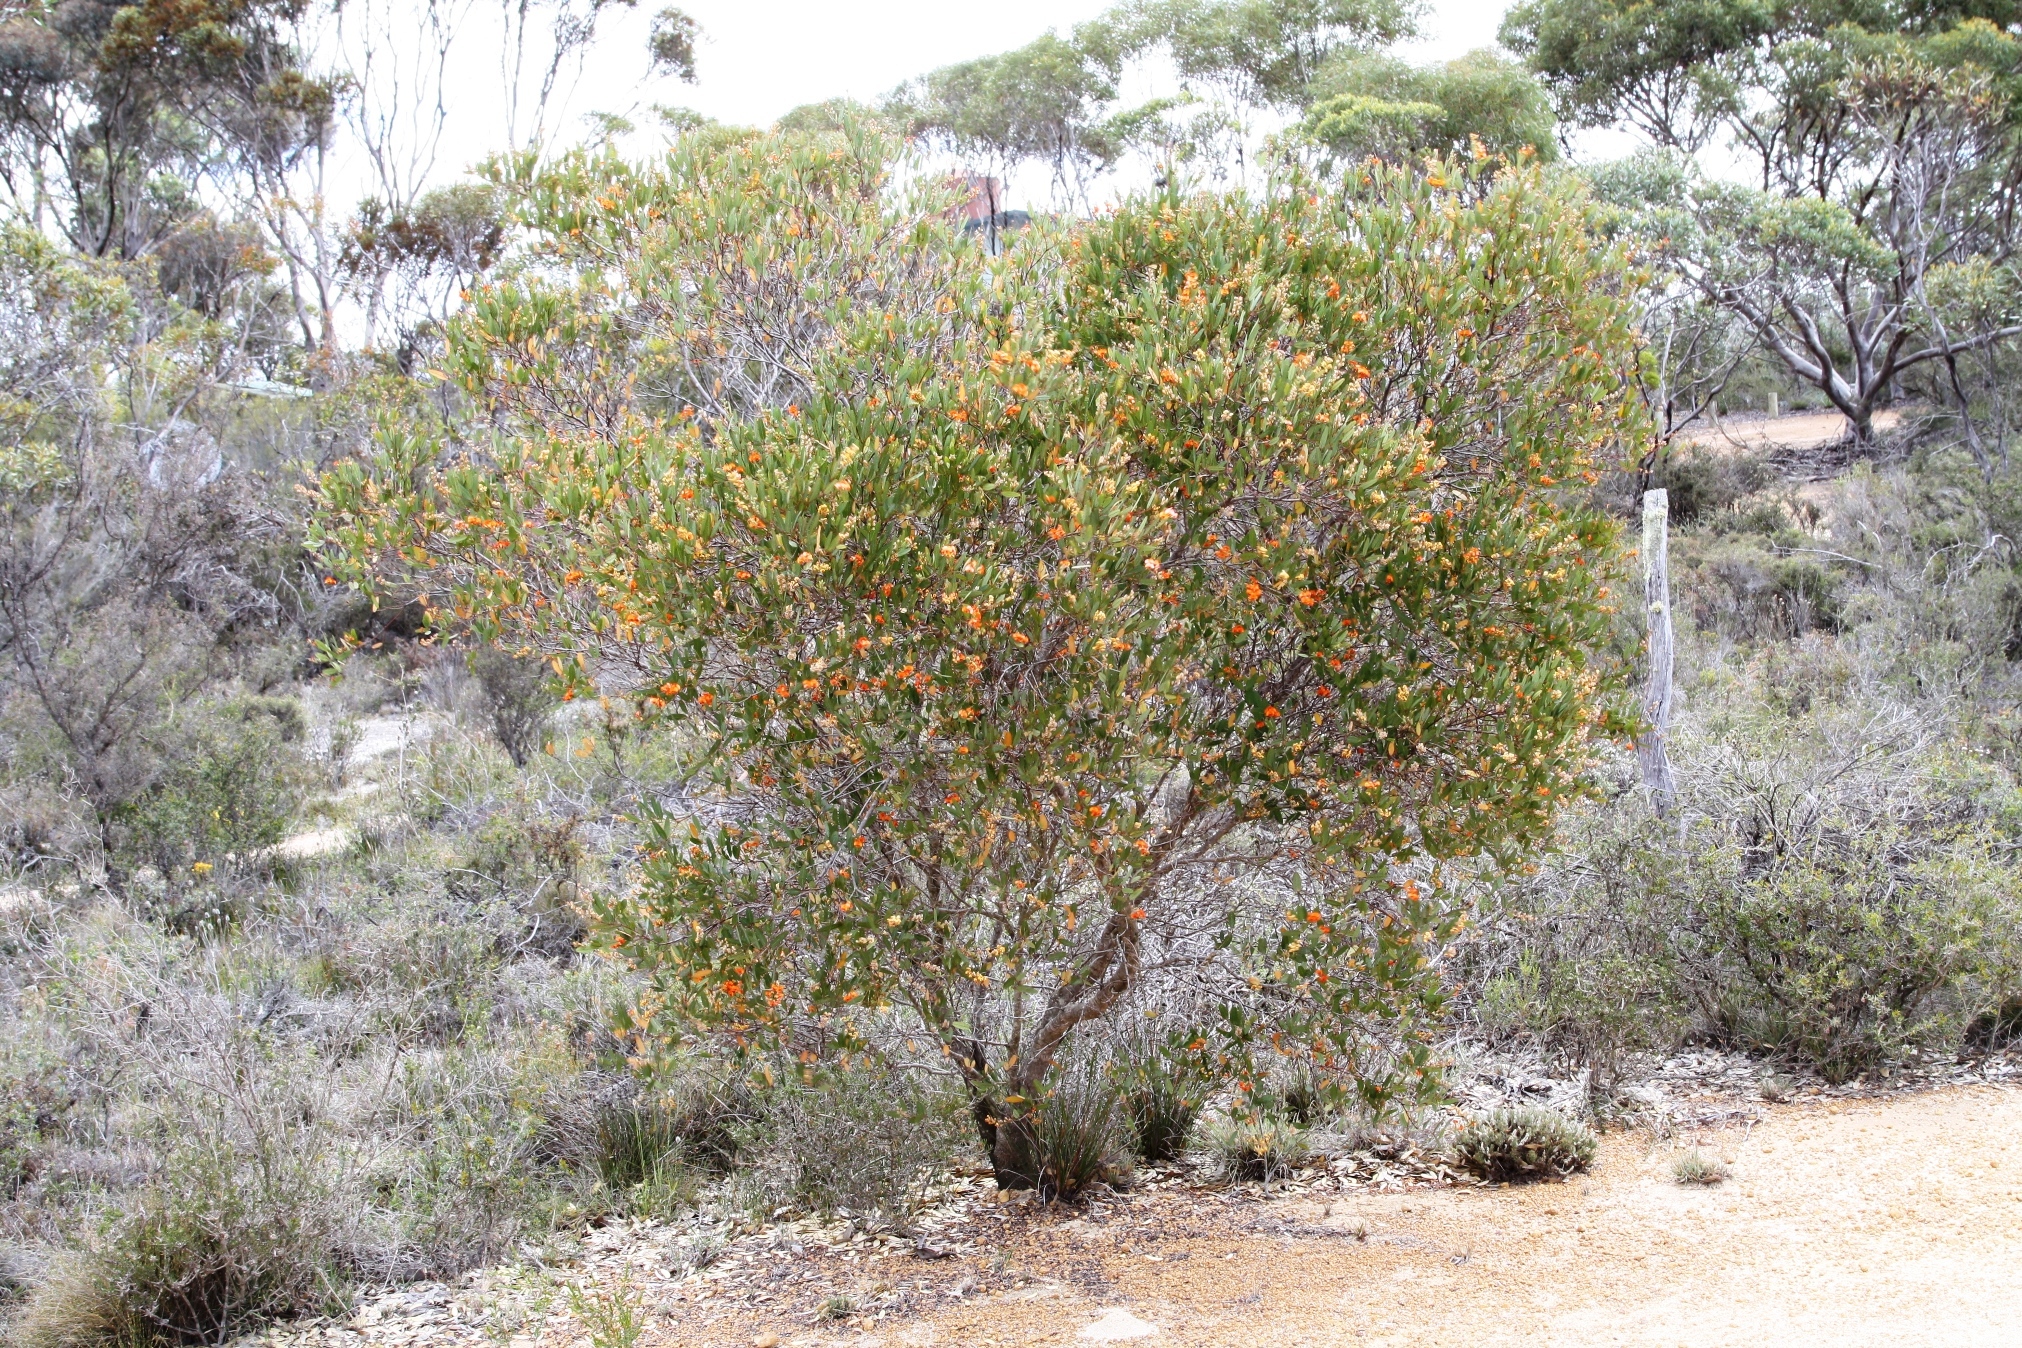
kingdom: Plantae
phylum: Tracheophyta
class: Magnoliopsida
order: Fabales
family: Fabaceae
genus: Gastrolobium
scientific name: Gastrolobium racemosum
